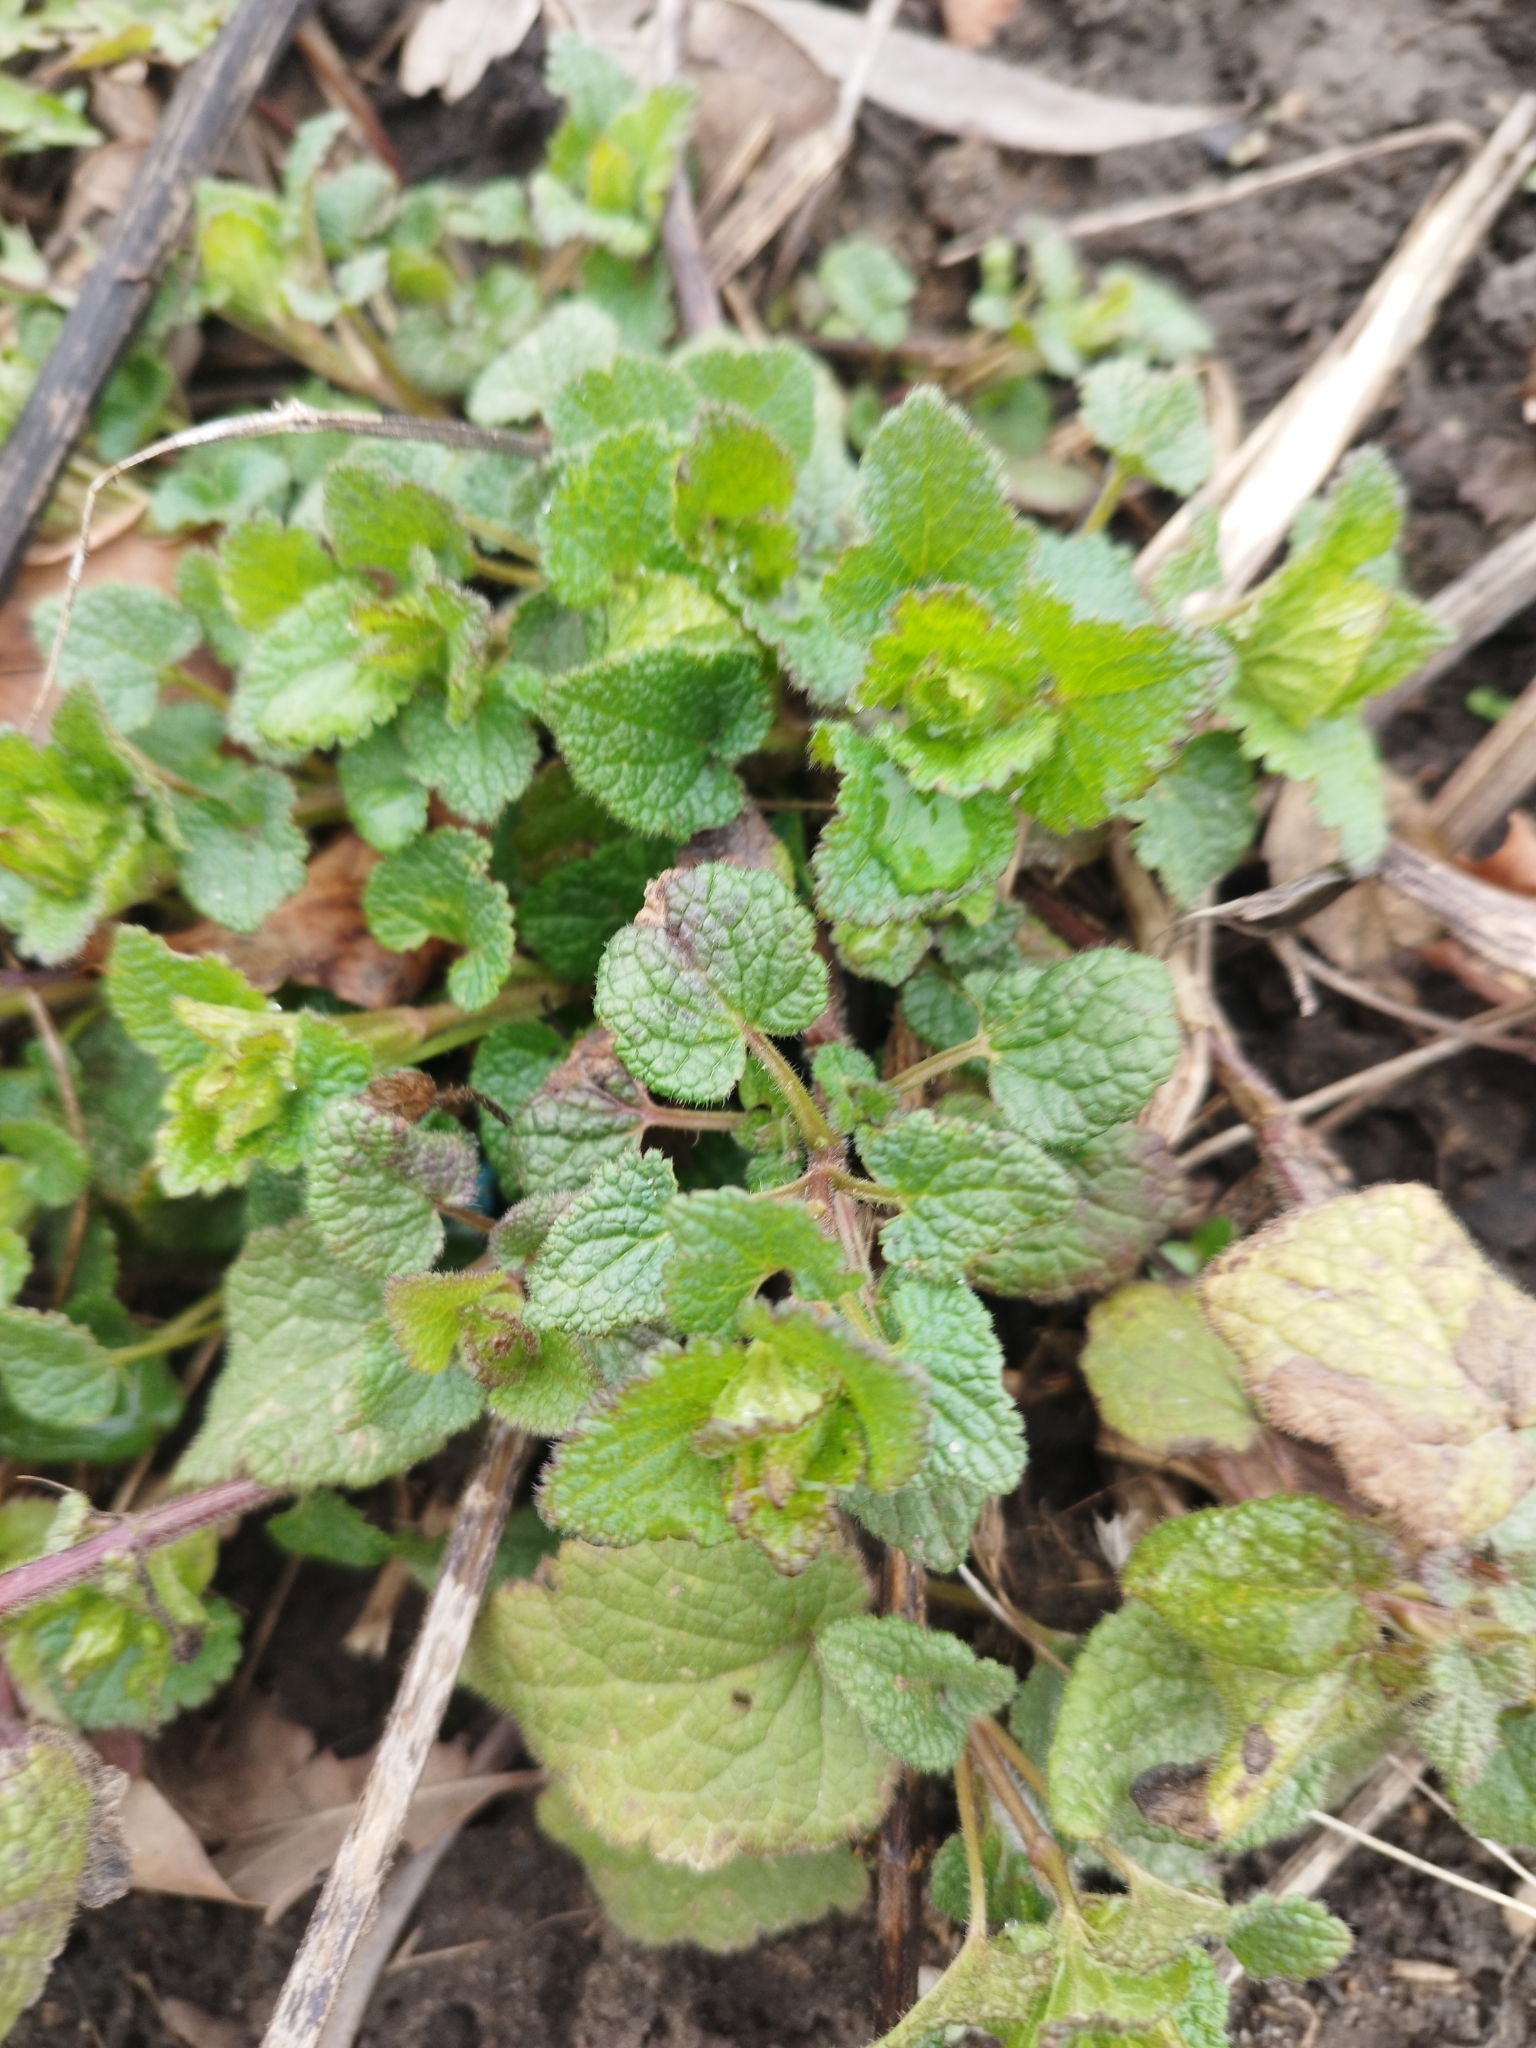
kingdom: Plantae
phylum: Tracheophyta
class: Magnoliopsida
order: Lamiales
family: Lamiaceae
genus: Lamium
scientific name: Lamium maculatum
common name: Spotted dead-nettle
